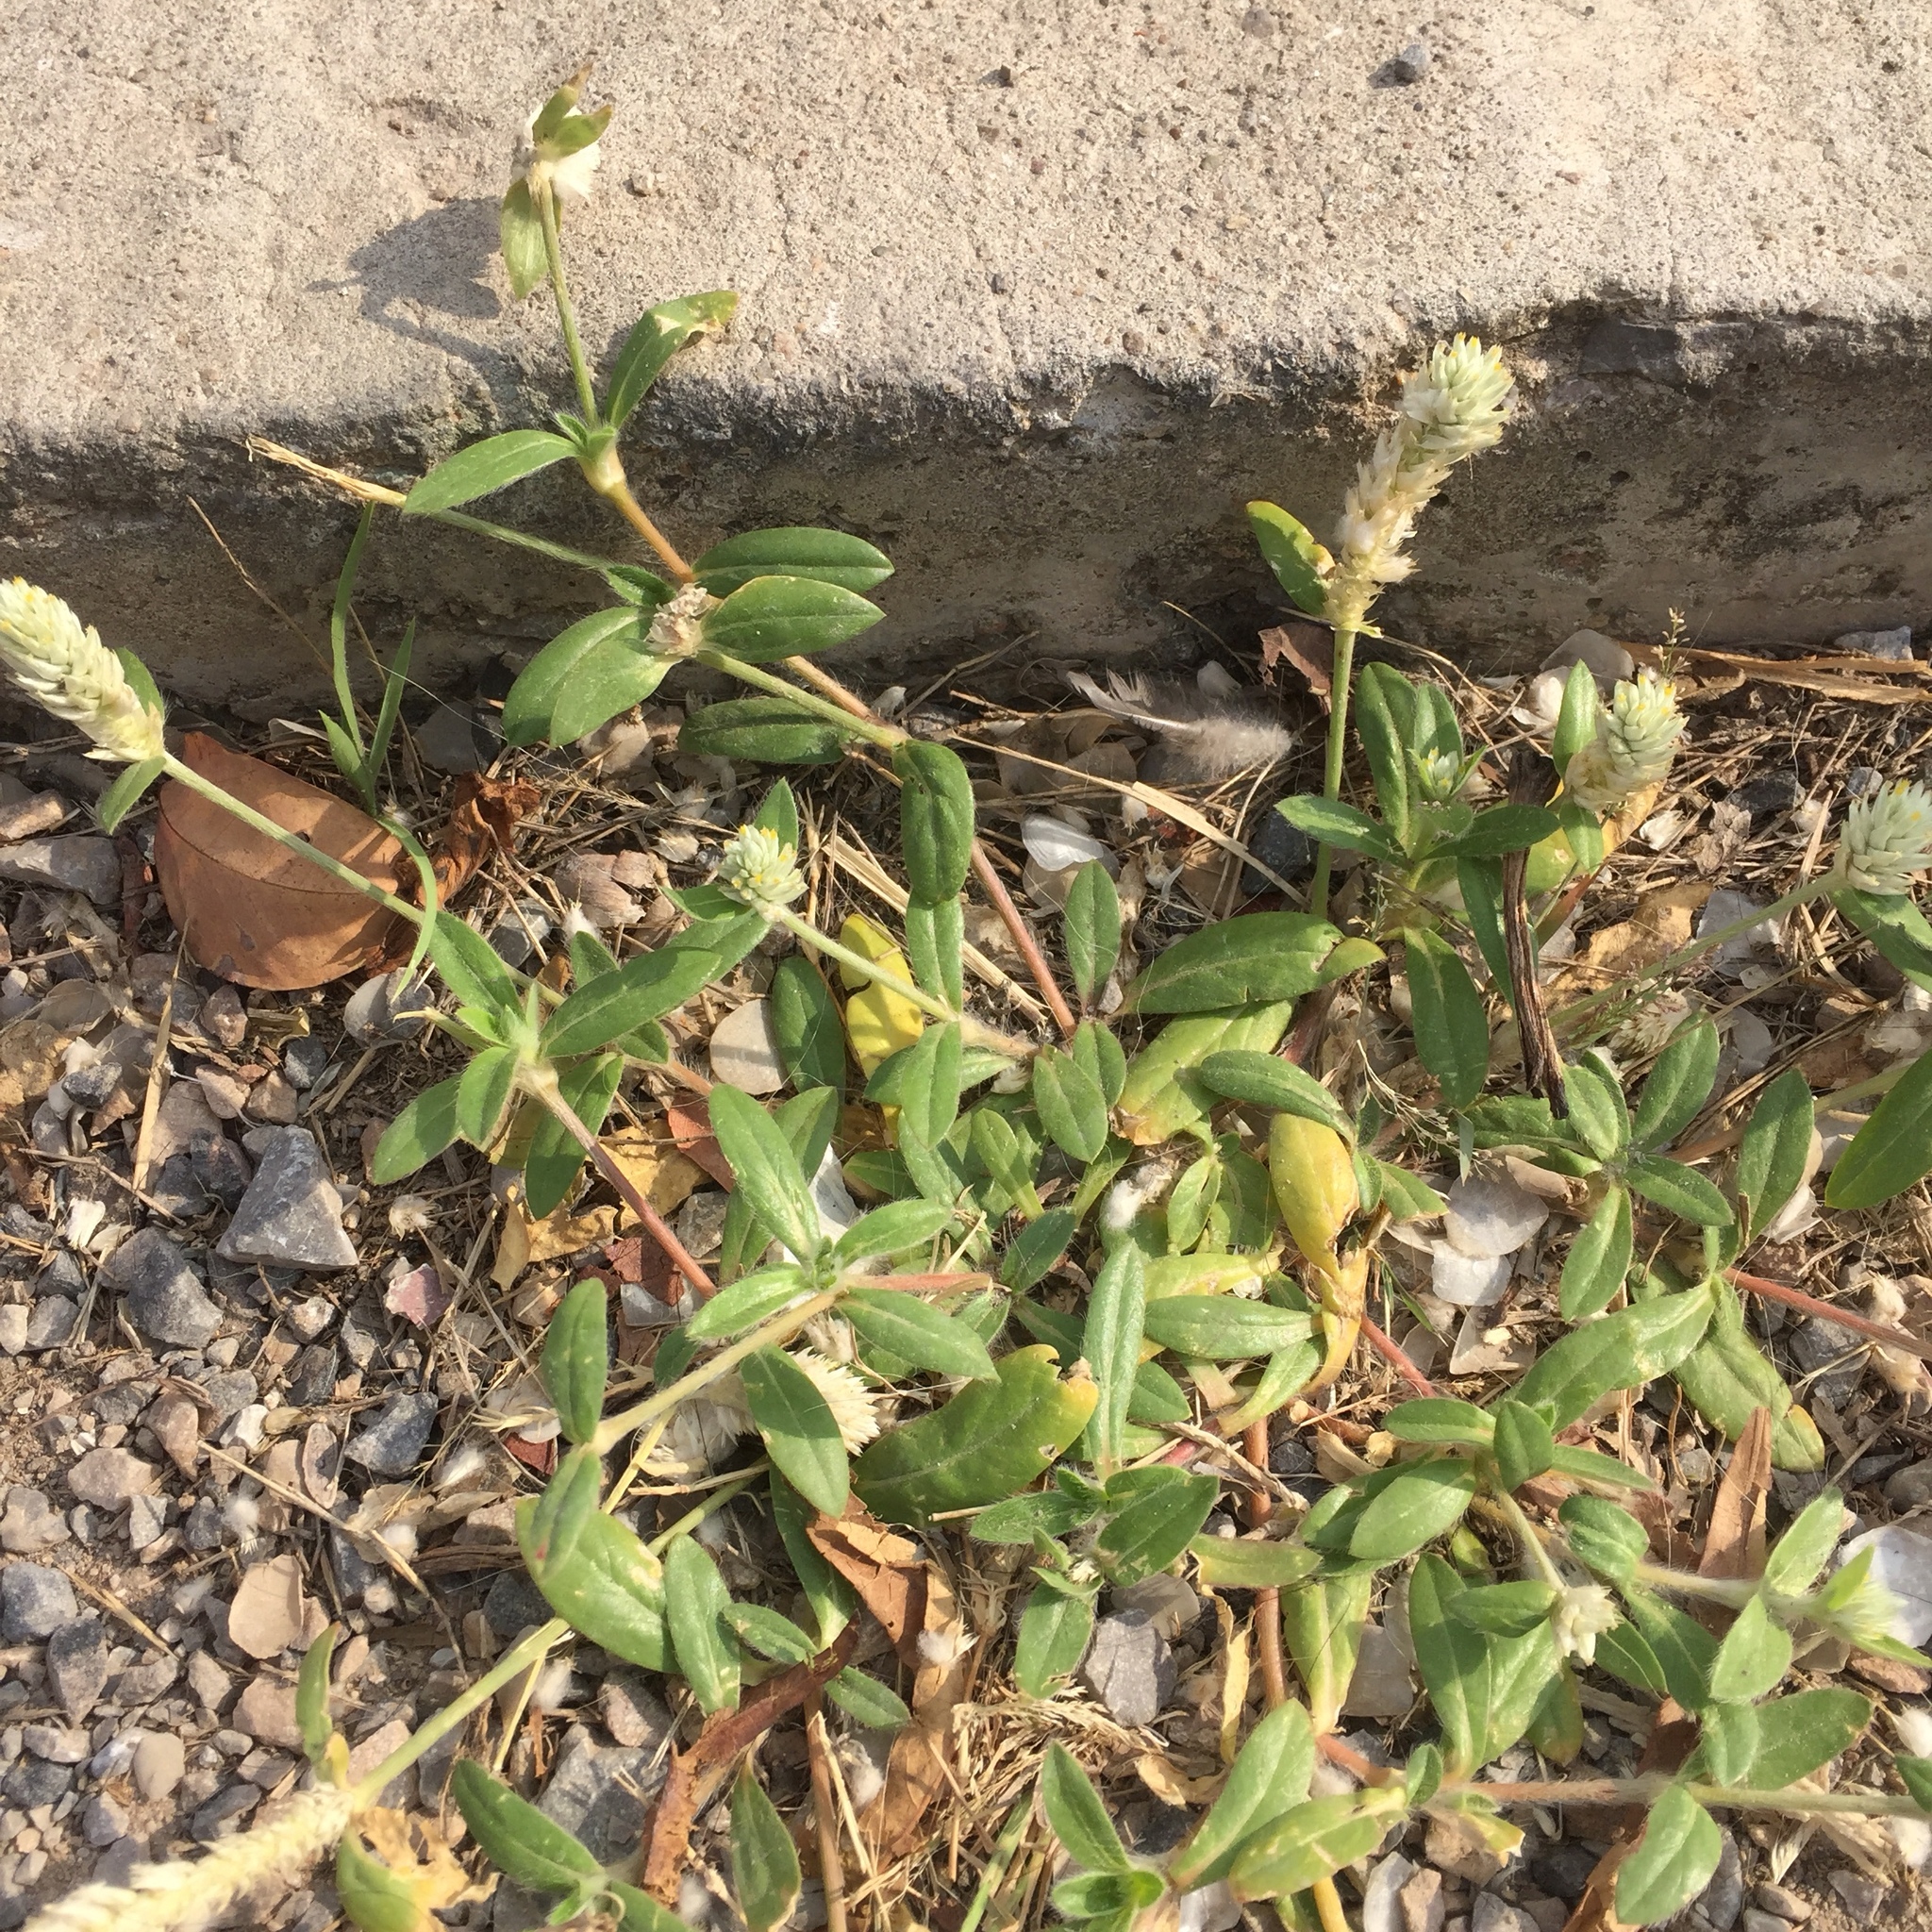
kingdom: Plantae
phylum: Tracheophyta
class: Magnoliopsida
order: Caryophyllales
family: Amaranthaceae
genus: Gomphrena
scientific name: Gomphrena celosioides
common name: Gomphrena-weed
